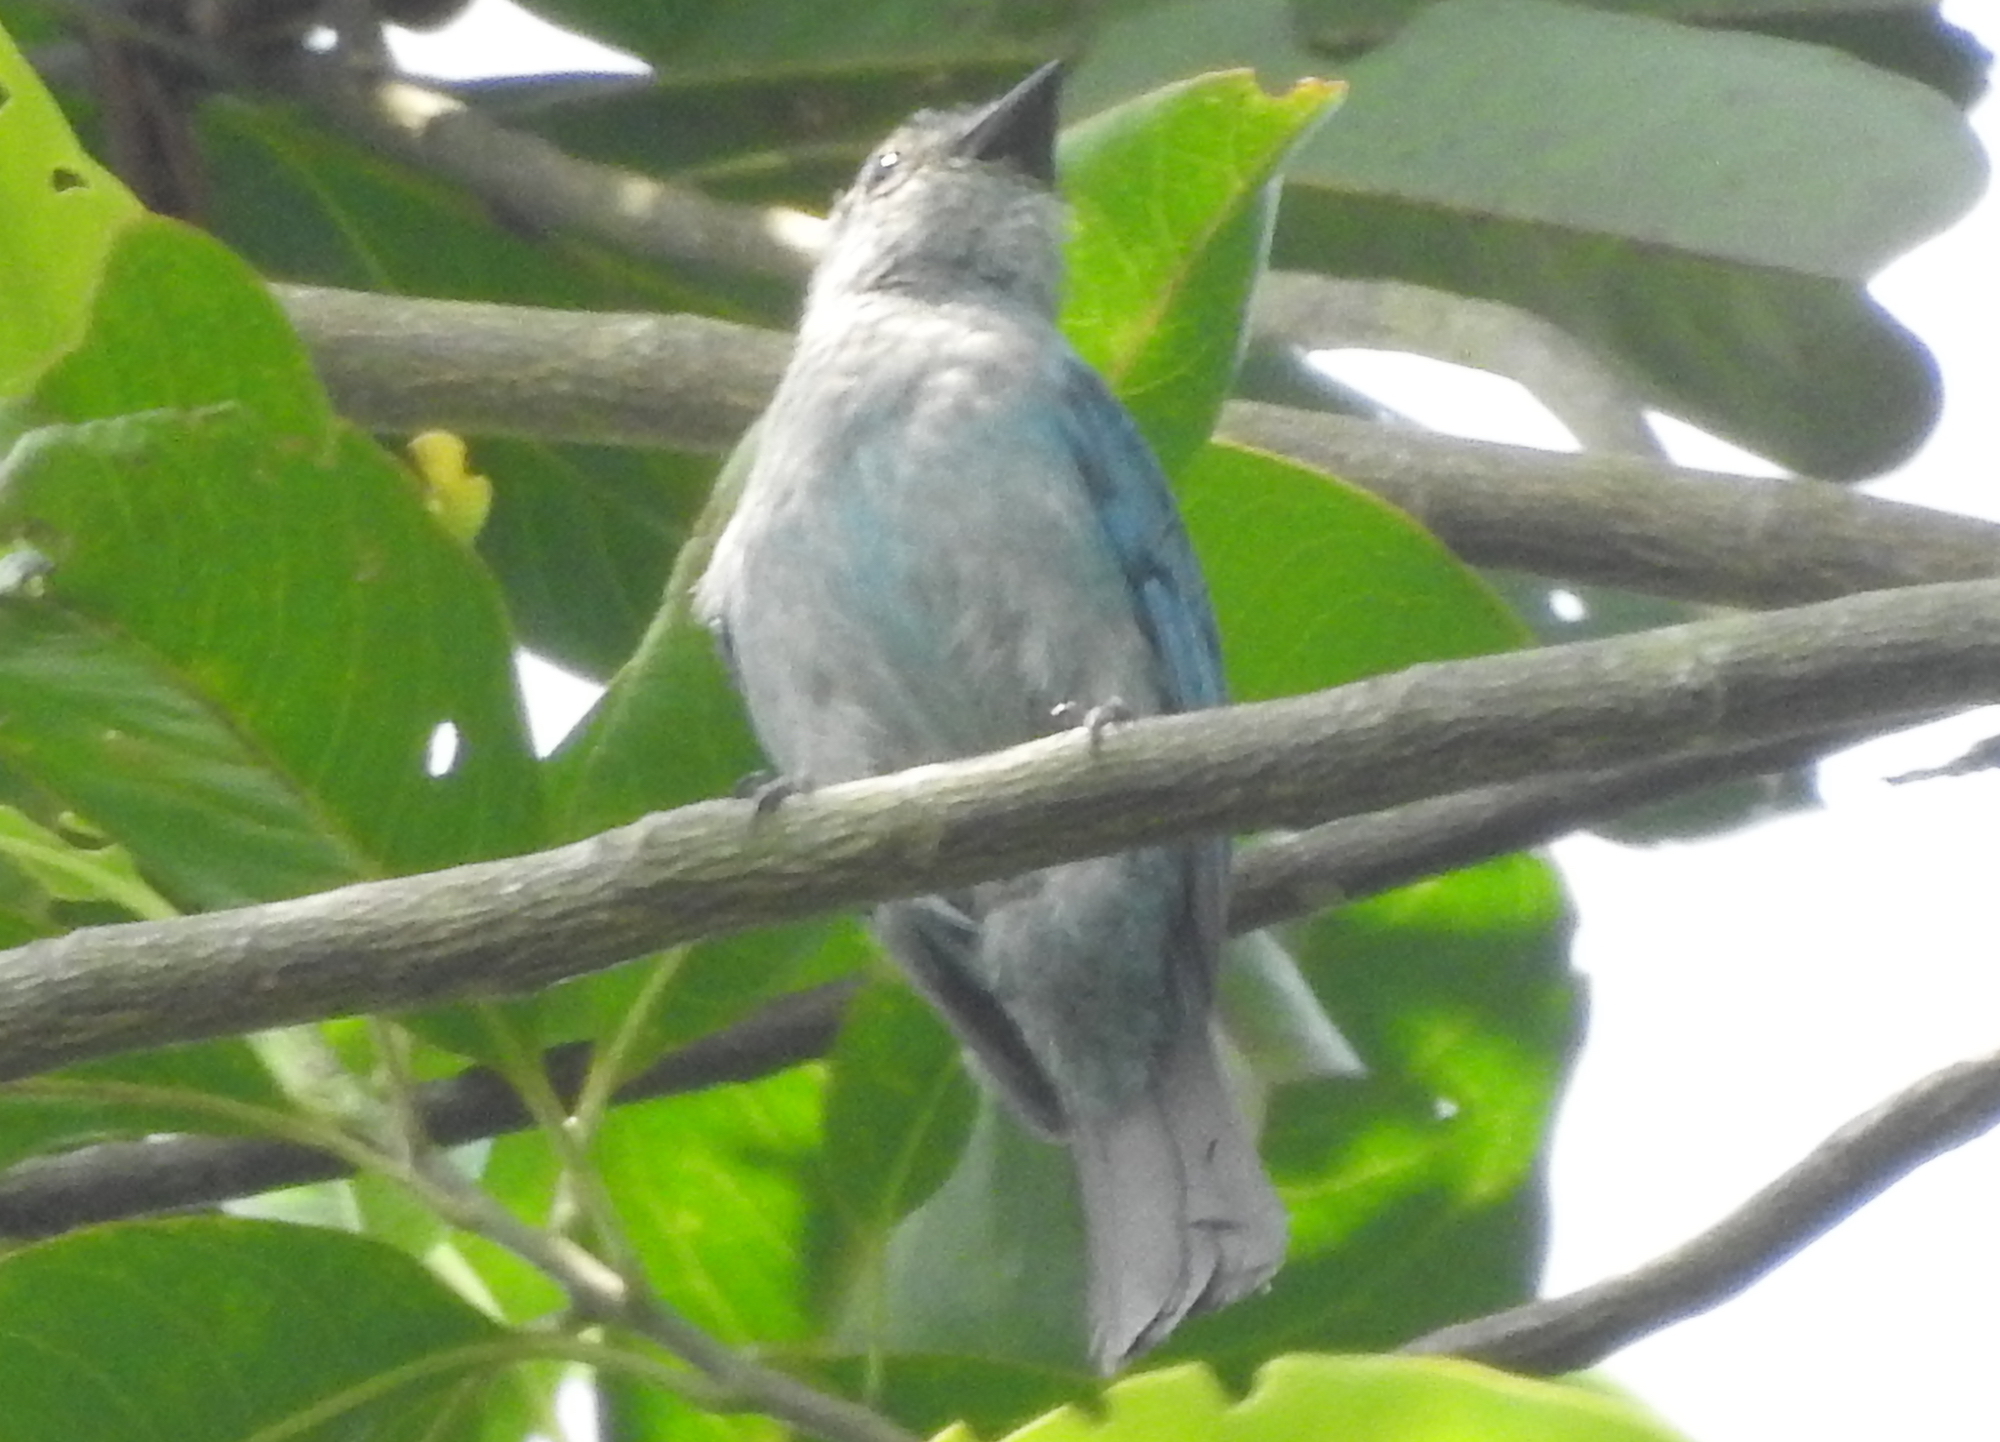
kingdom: Animalia
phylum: Chordata
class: Aves
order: Passeriformes
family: Muscicapidae
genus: Cyornis
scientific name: Cyornis unicolor
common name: Pale blue flycatcher
